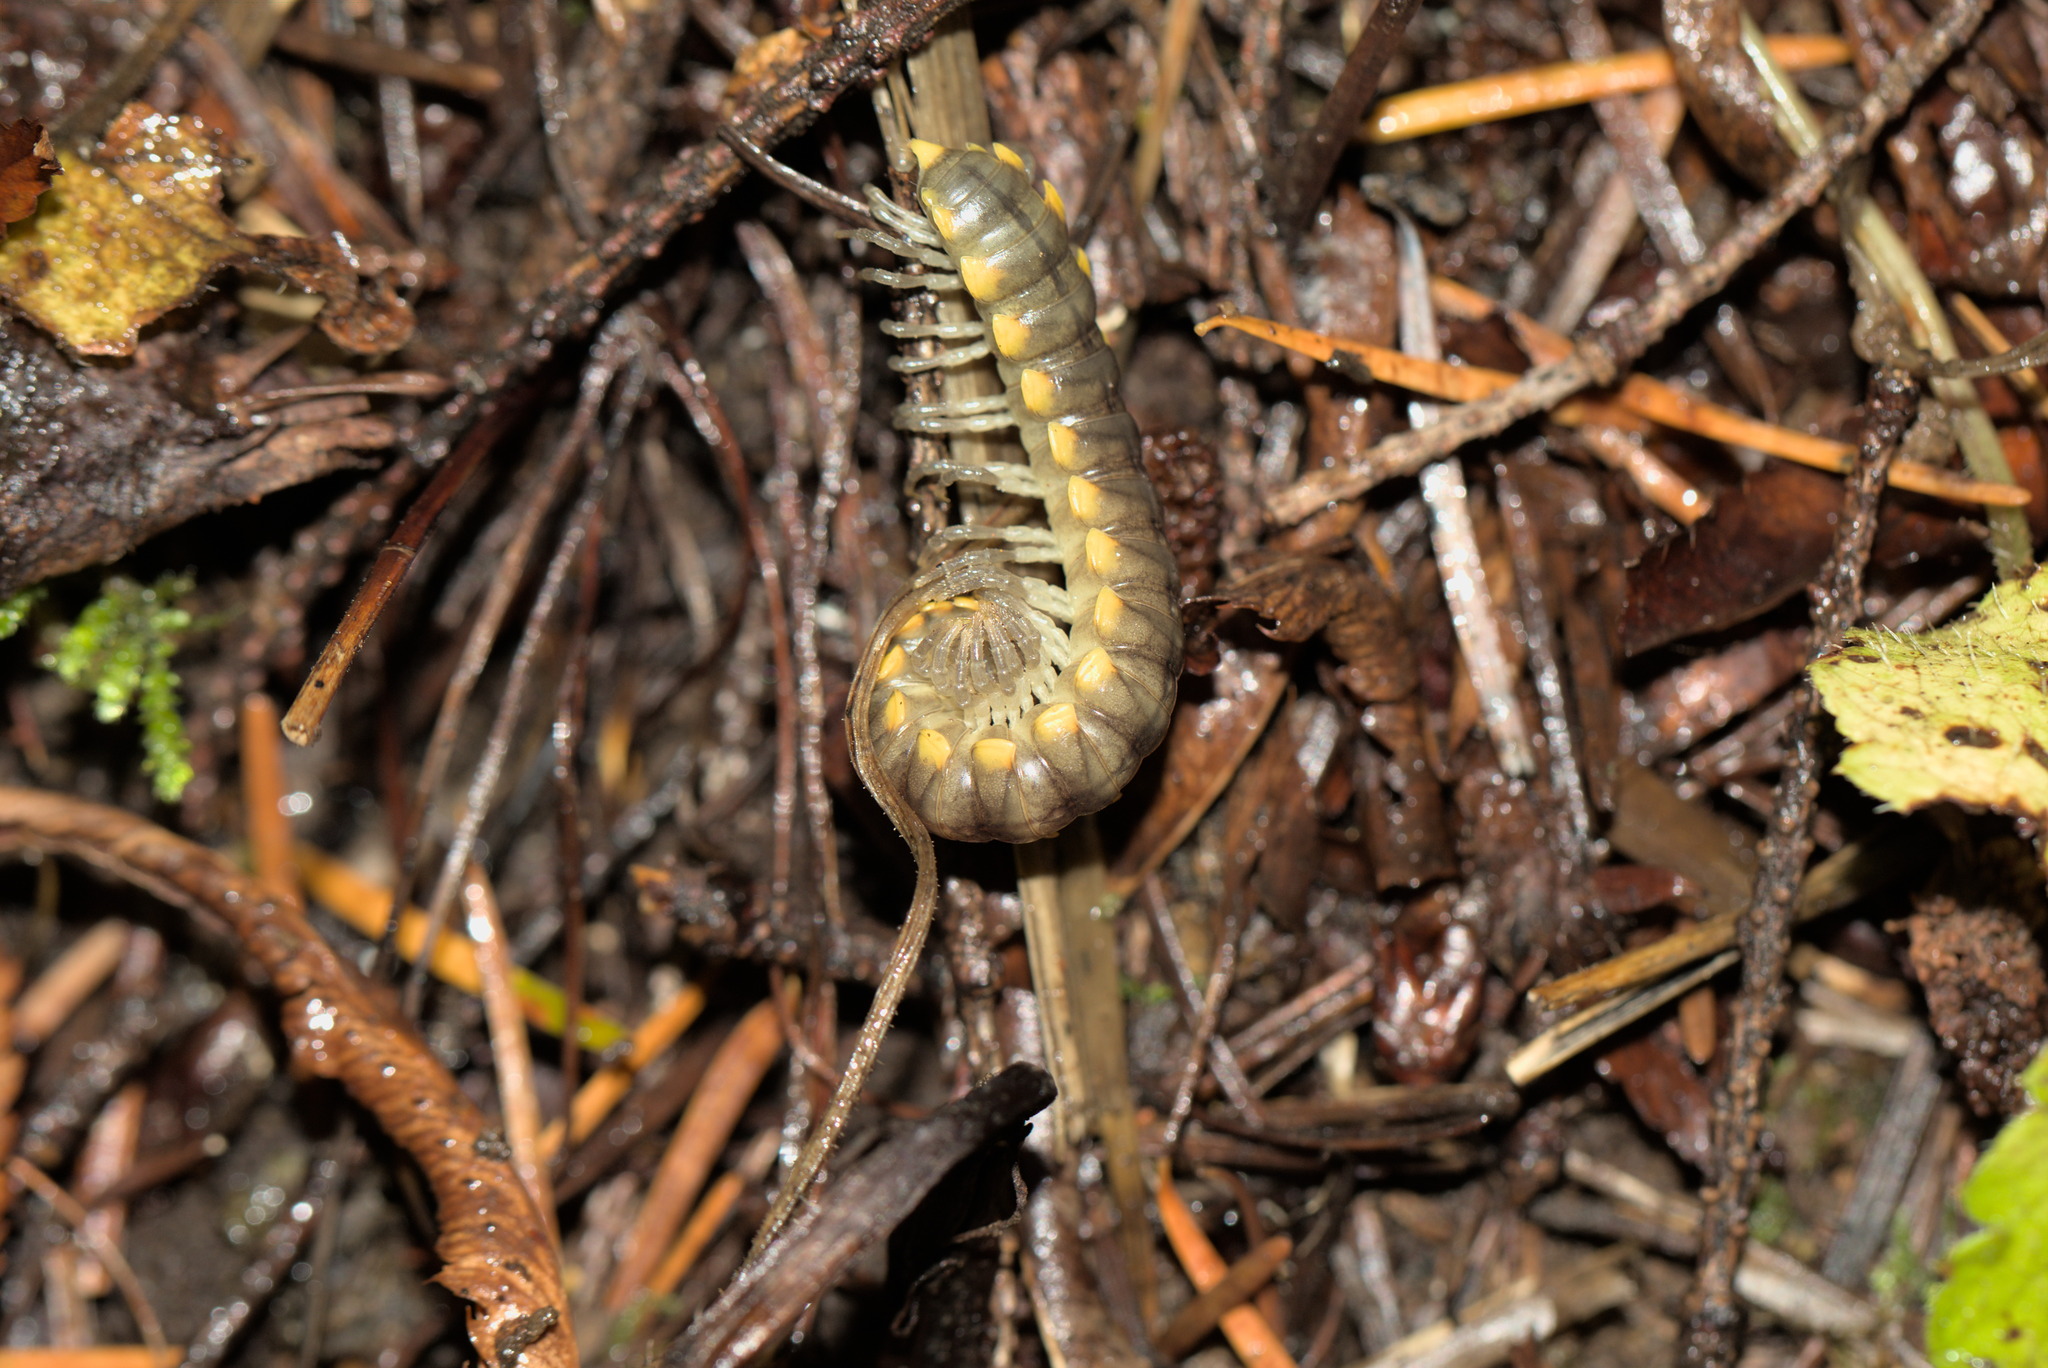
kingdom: Animalia
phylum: Arthropoda
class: Diplopoda
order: Polydesmida
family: Xystodesmidae
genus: Harpaphe
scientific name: Harpaphe haydeniana
